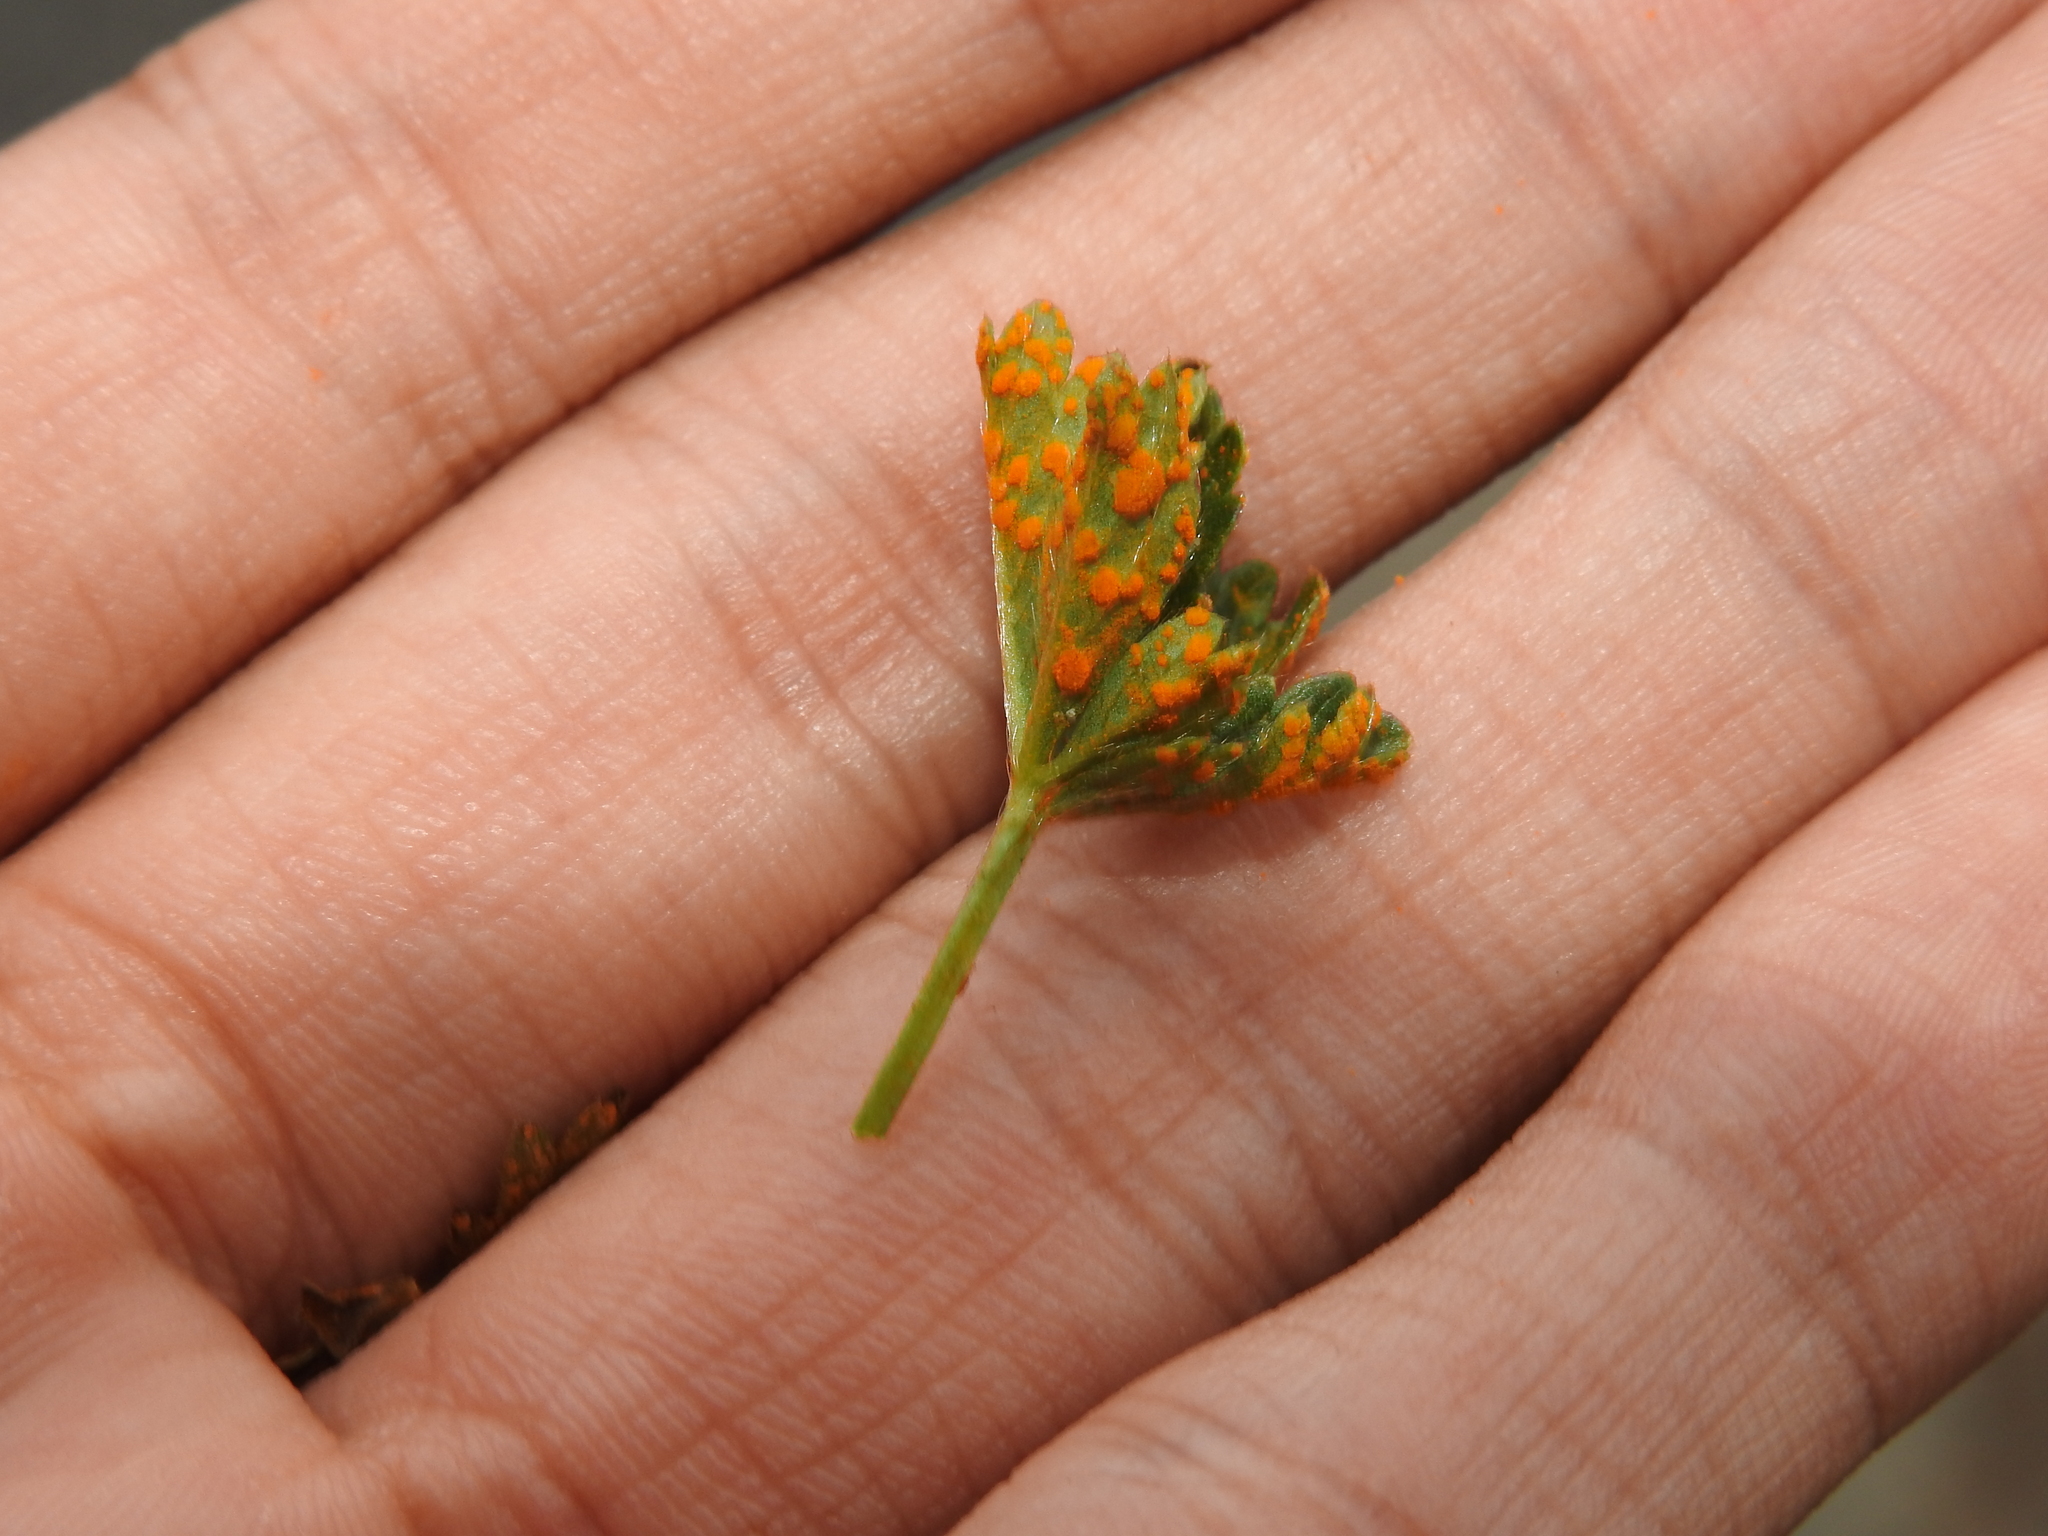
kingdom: Fungi
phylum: Basidiomycota
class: Pucciniomycetes
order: Pucciniales
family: Phragmidiaceae
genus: Phragmidium
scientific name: Phragmidium
